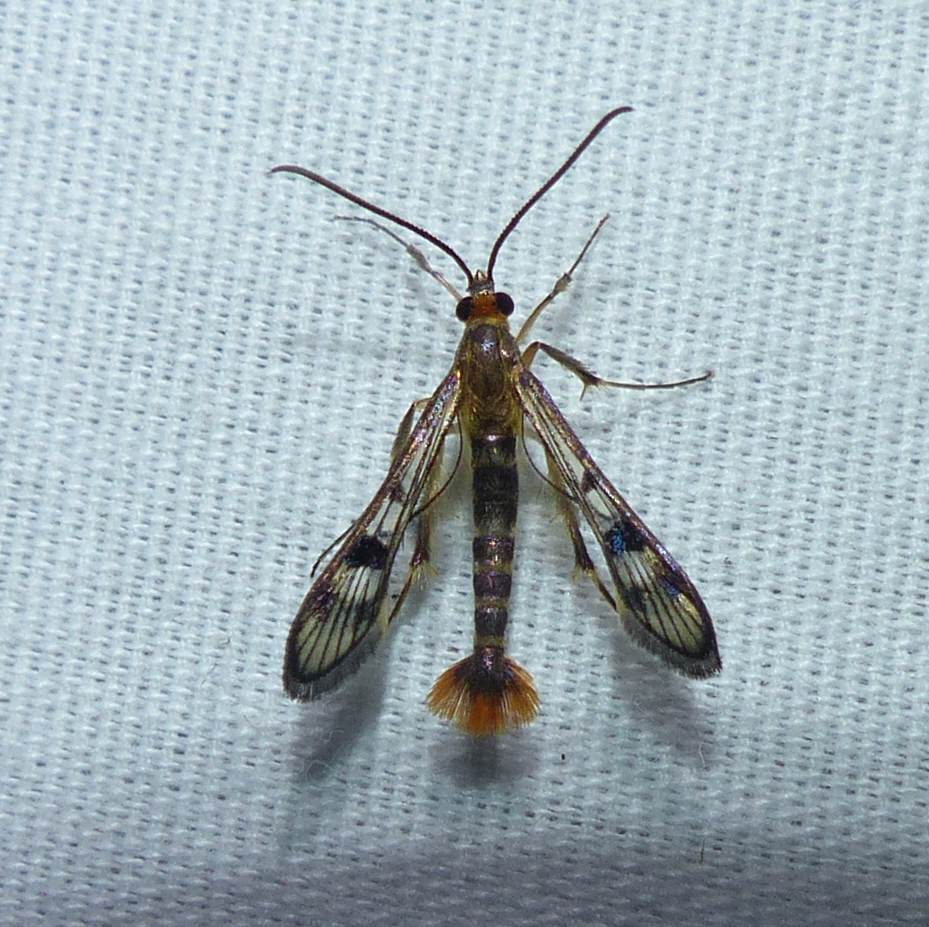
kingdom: Animalia
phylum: Arthropoda
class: Insecta
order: Lepidoptera
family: Sesiidae
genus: Synanthedon
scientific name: Synanthedon acerni
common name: Maple callus borer moth
